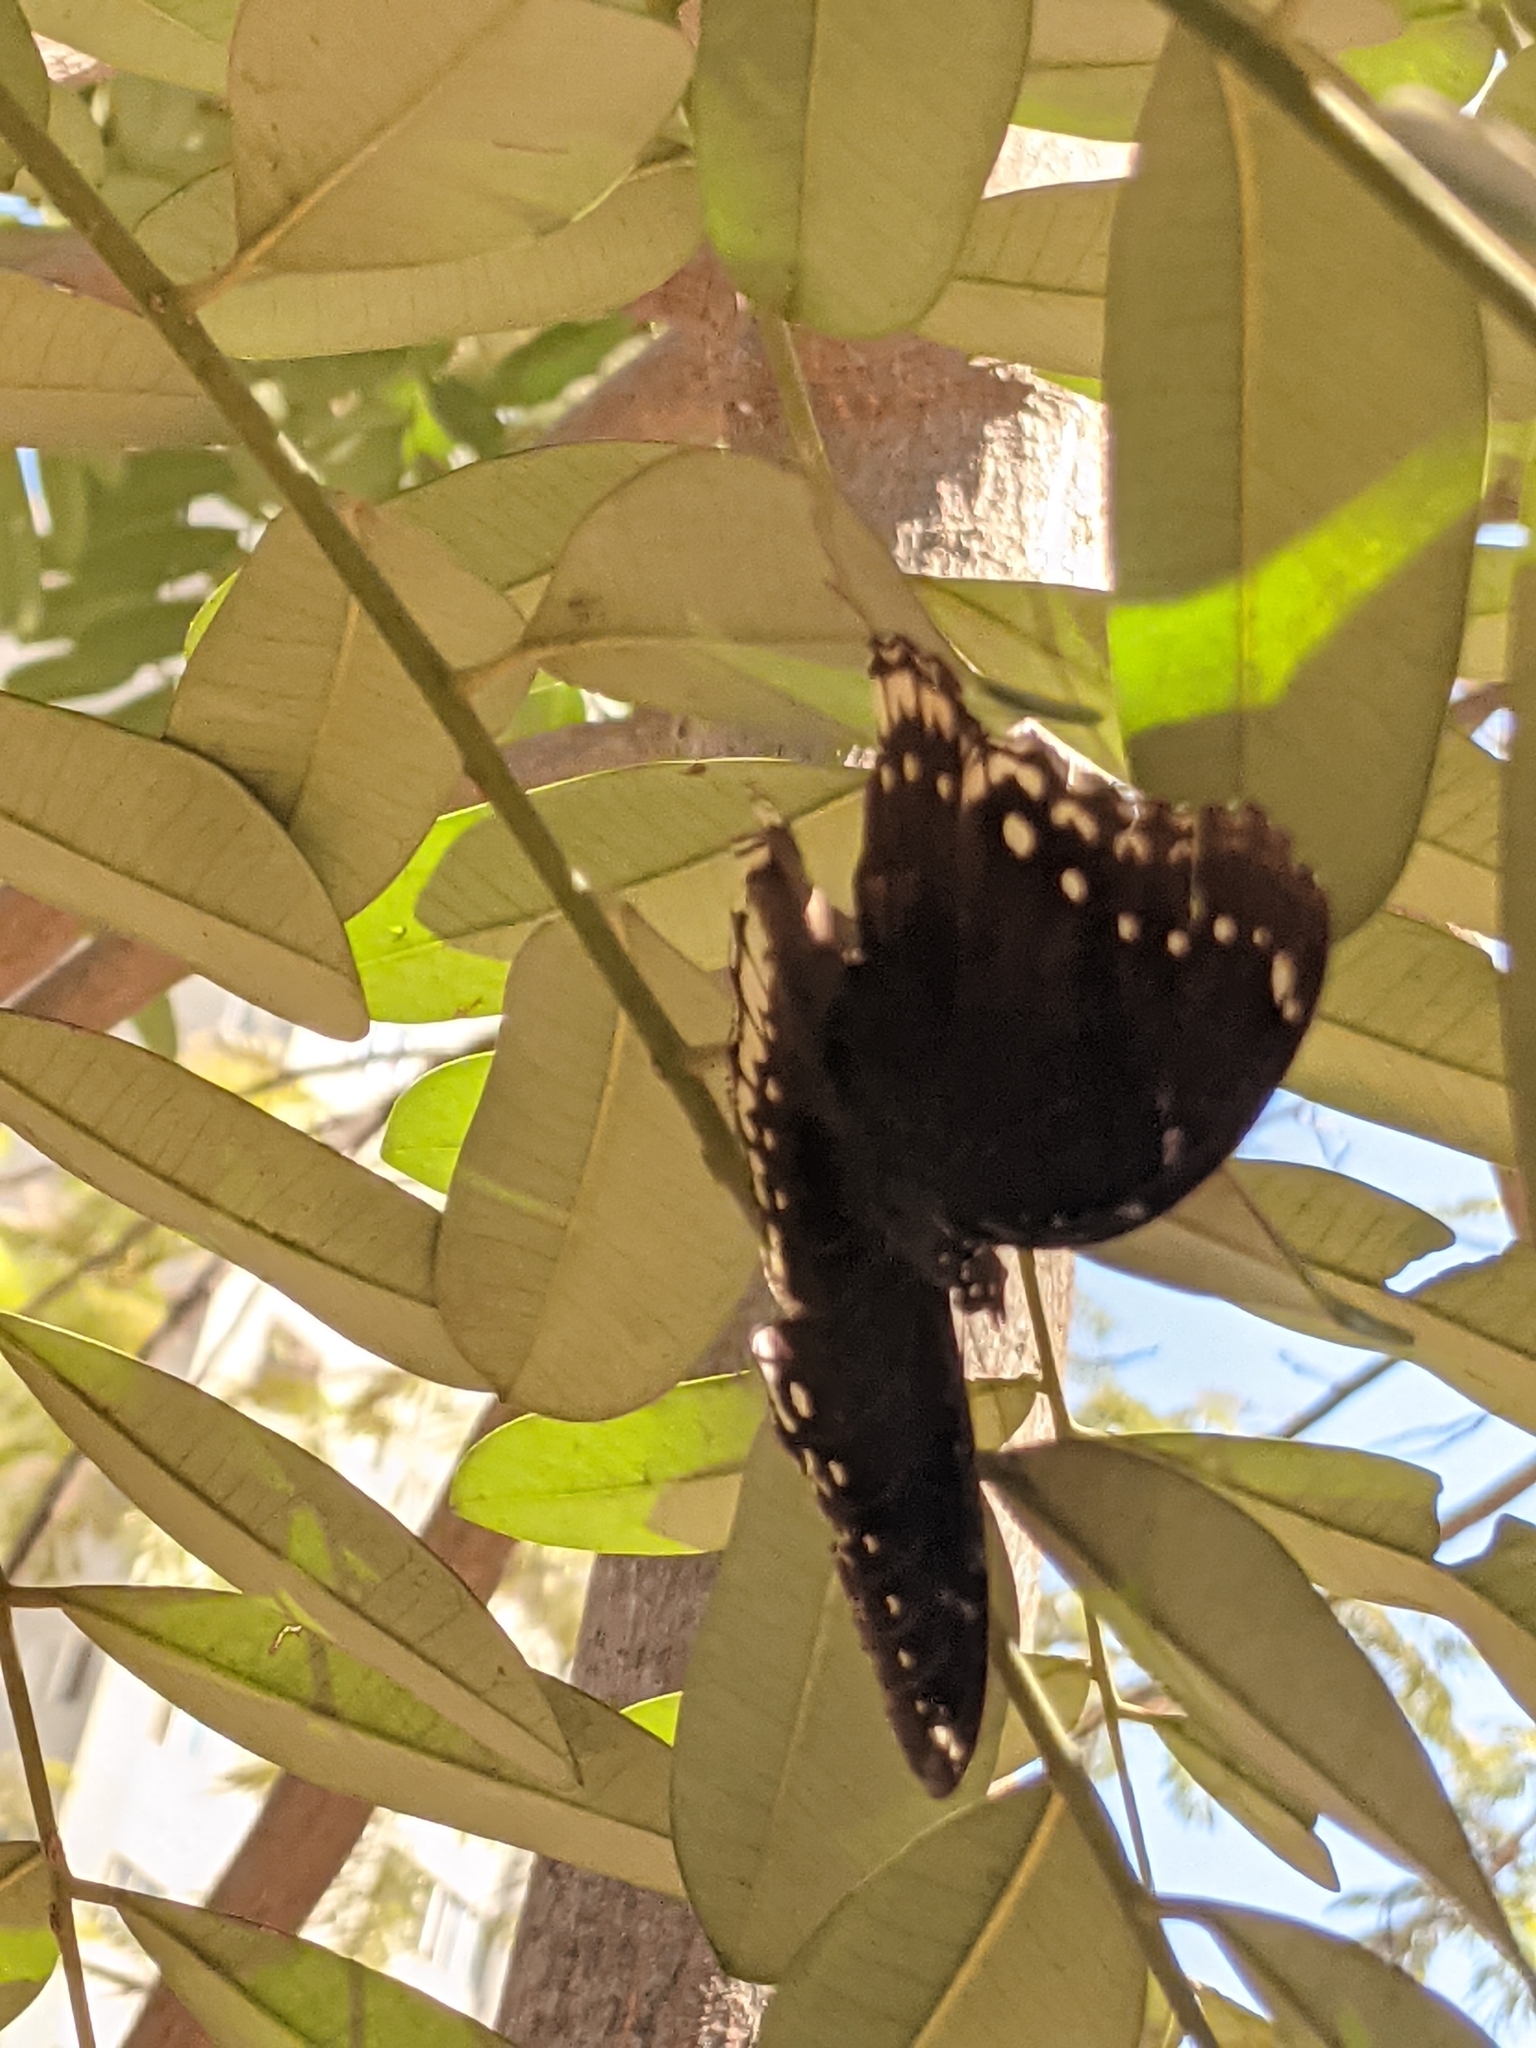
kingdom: Animalia
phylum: Arthropoda
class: Insecta
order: Lepidoptera
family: Nymphalidae
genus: Hypolimnas
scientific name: Hypolimnas bolina
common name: Great eggfly
